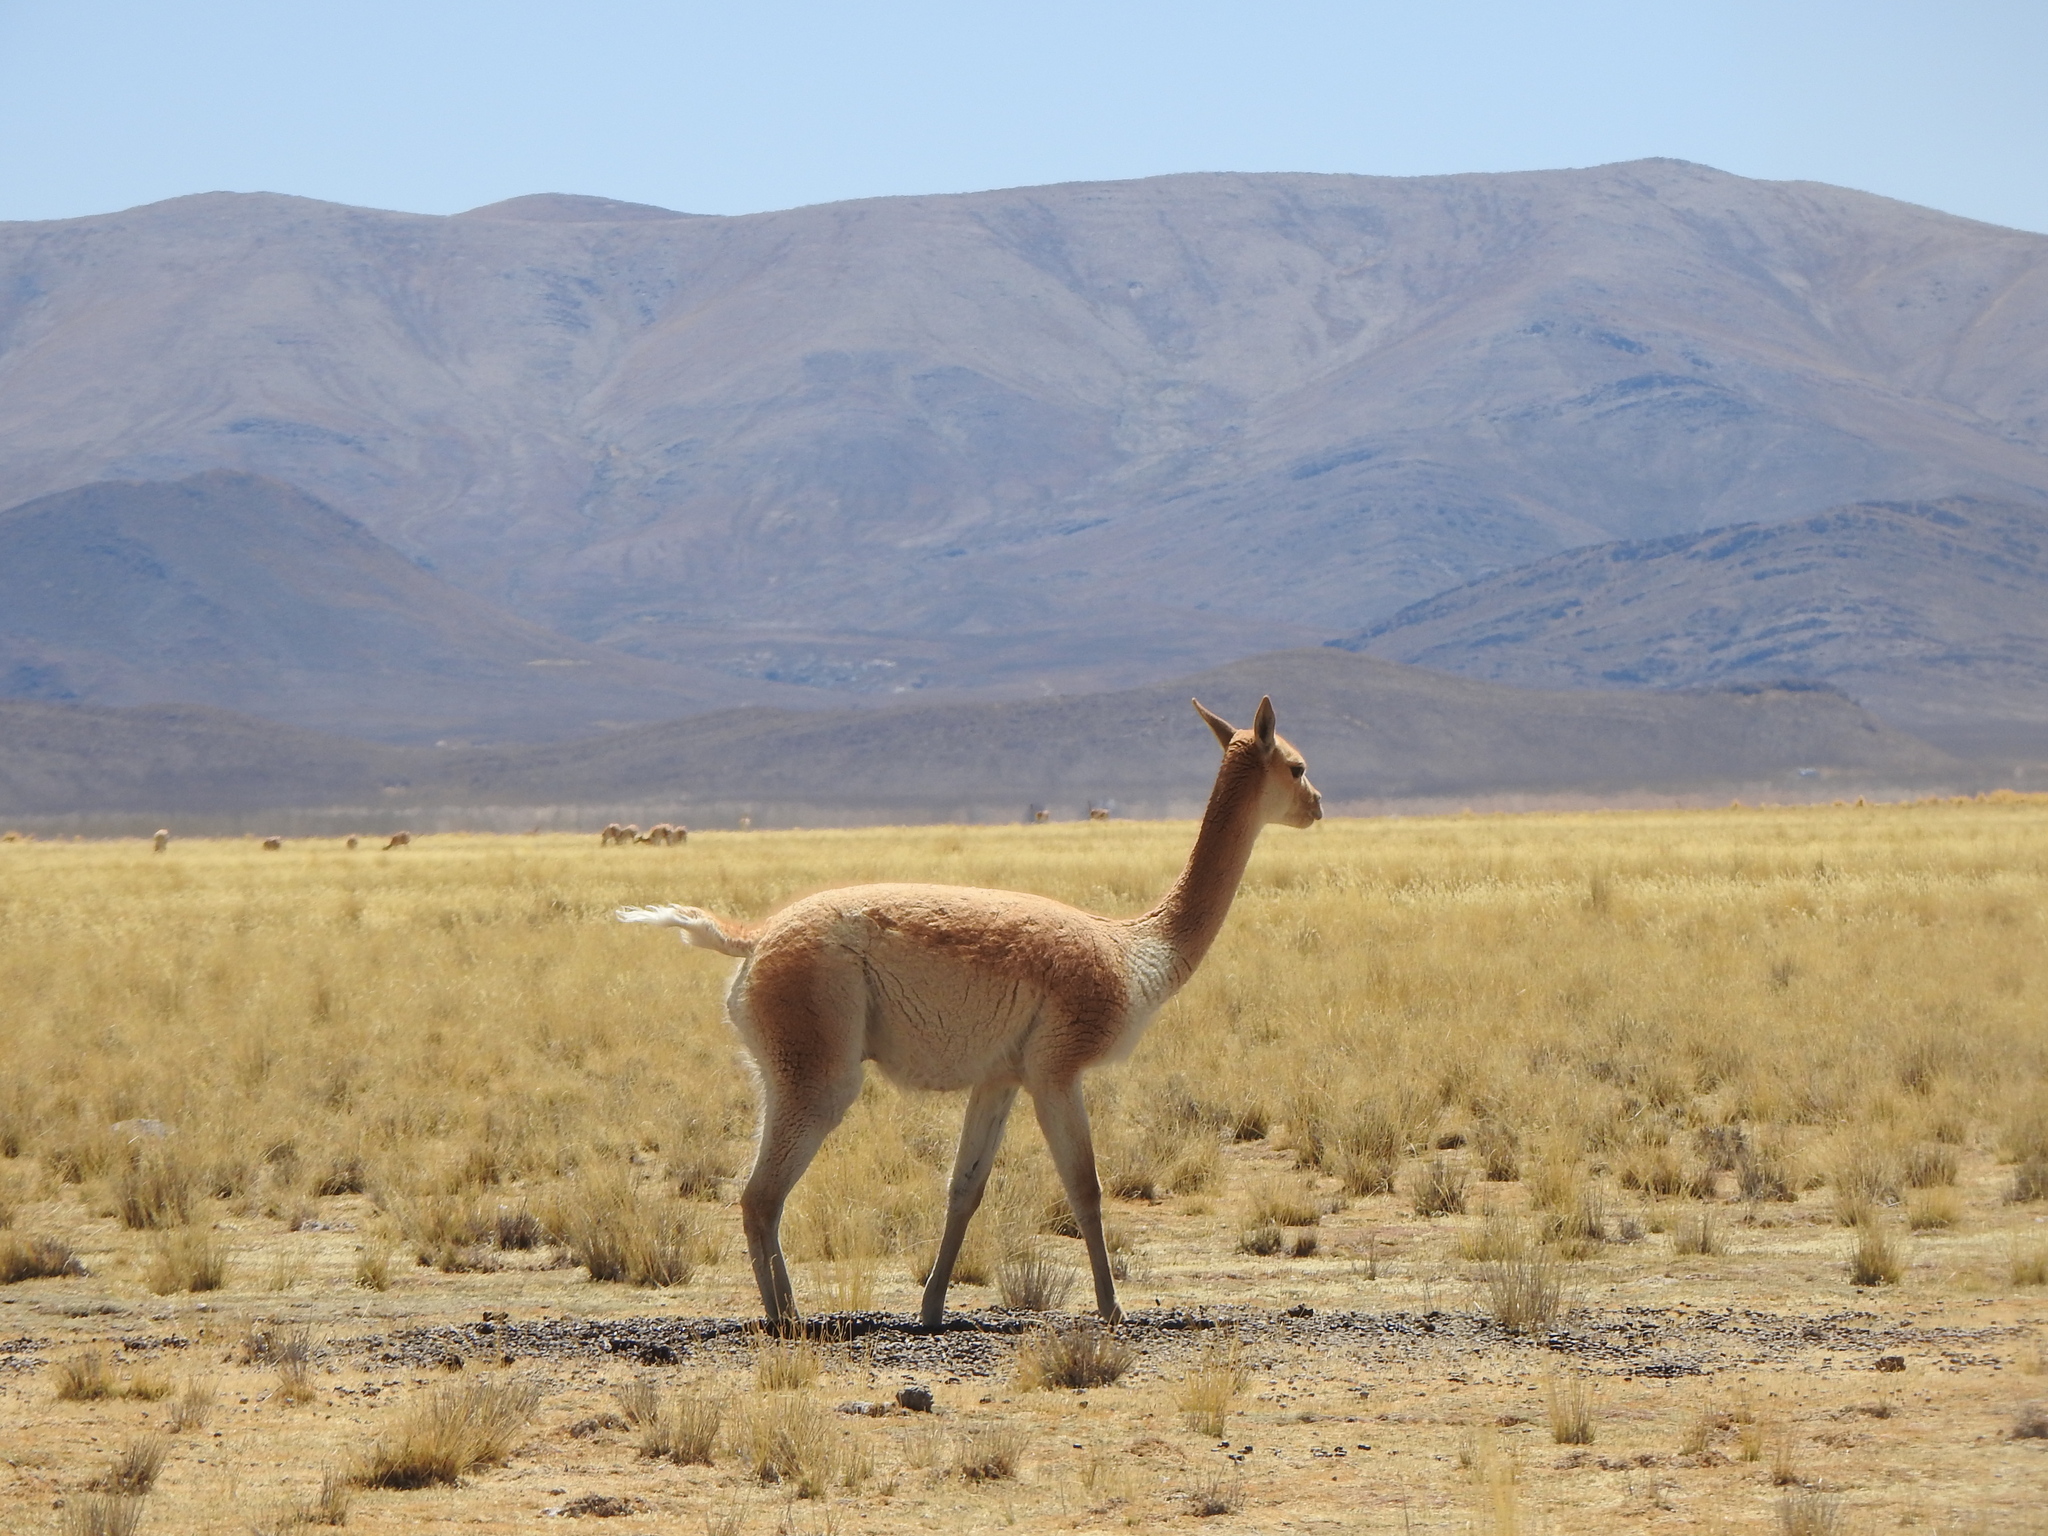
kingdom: Animalia
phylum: Chordata
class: Mammalia
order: Artiodactyla
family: Camelidae
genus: Vicugna
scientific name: Vicugna vicugna
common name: Vicugna
